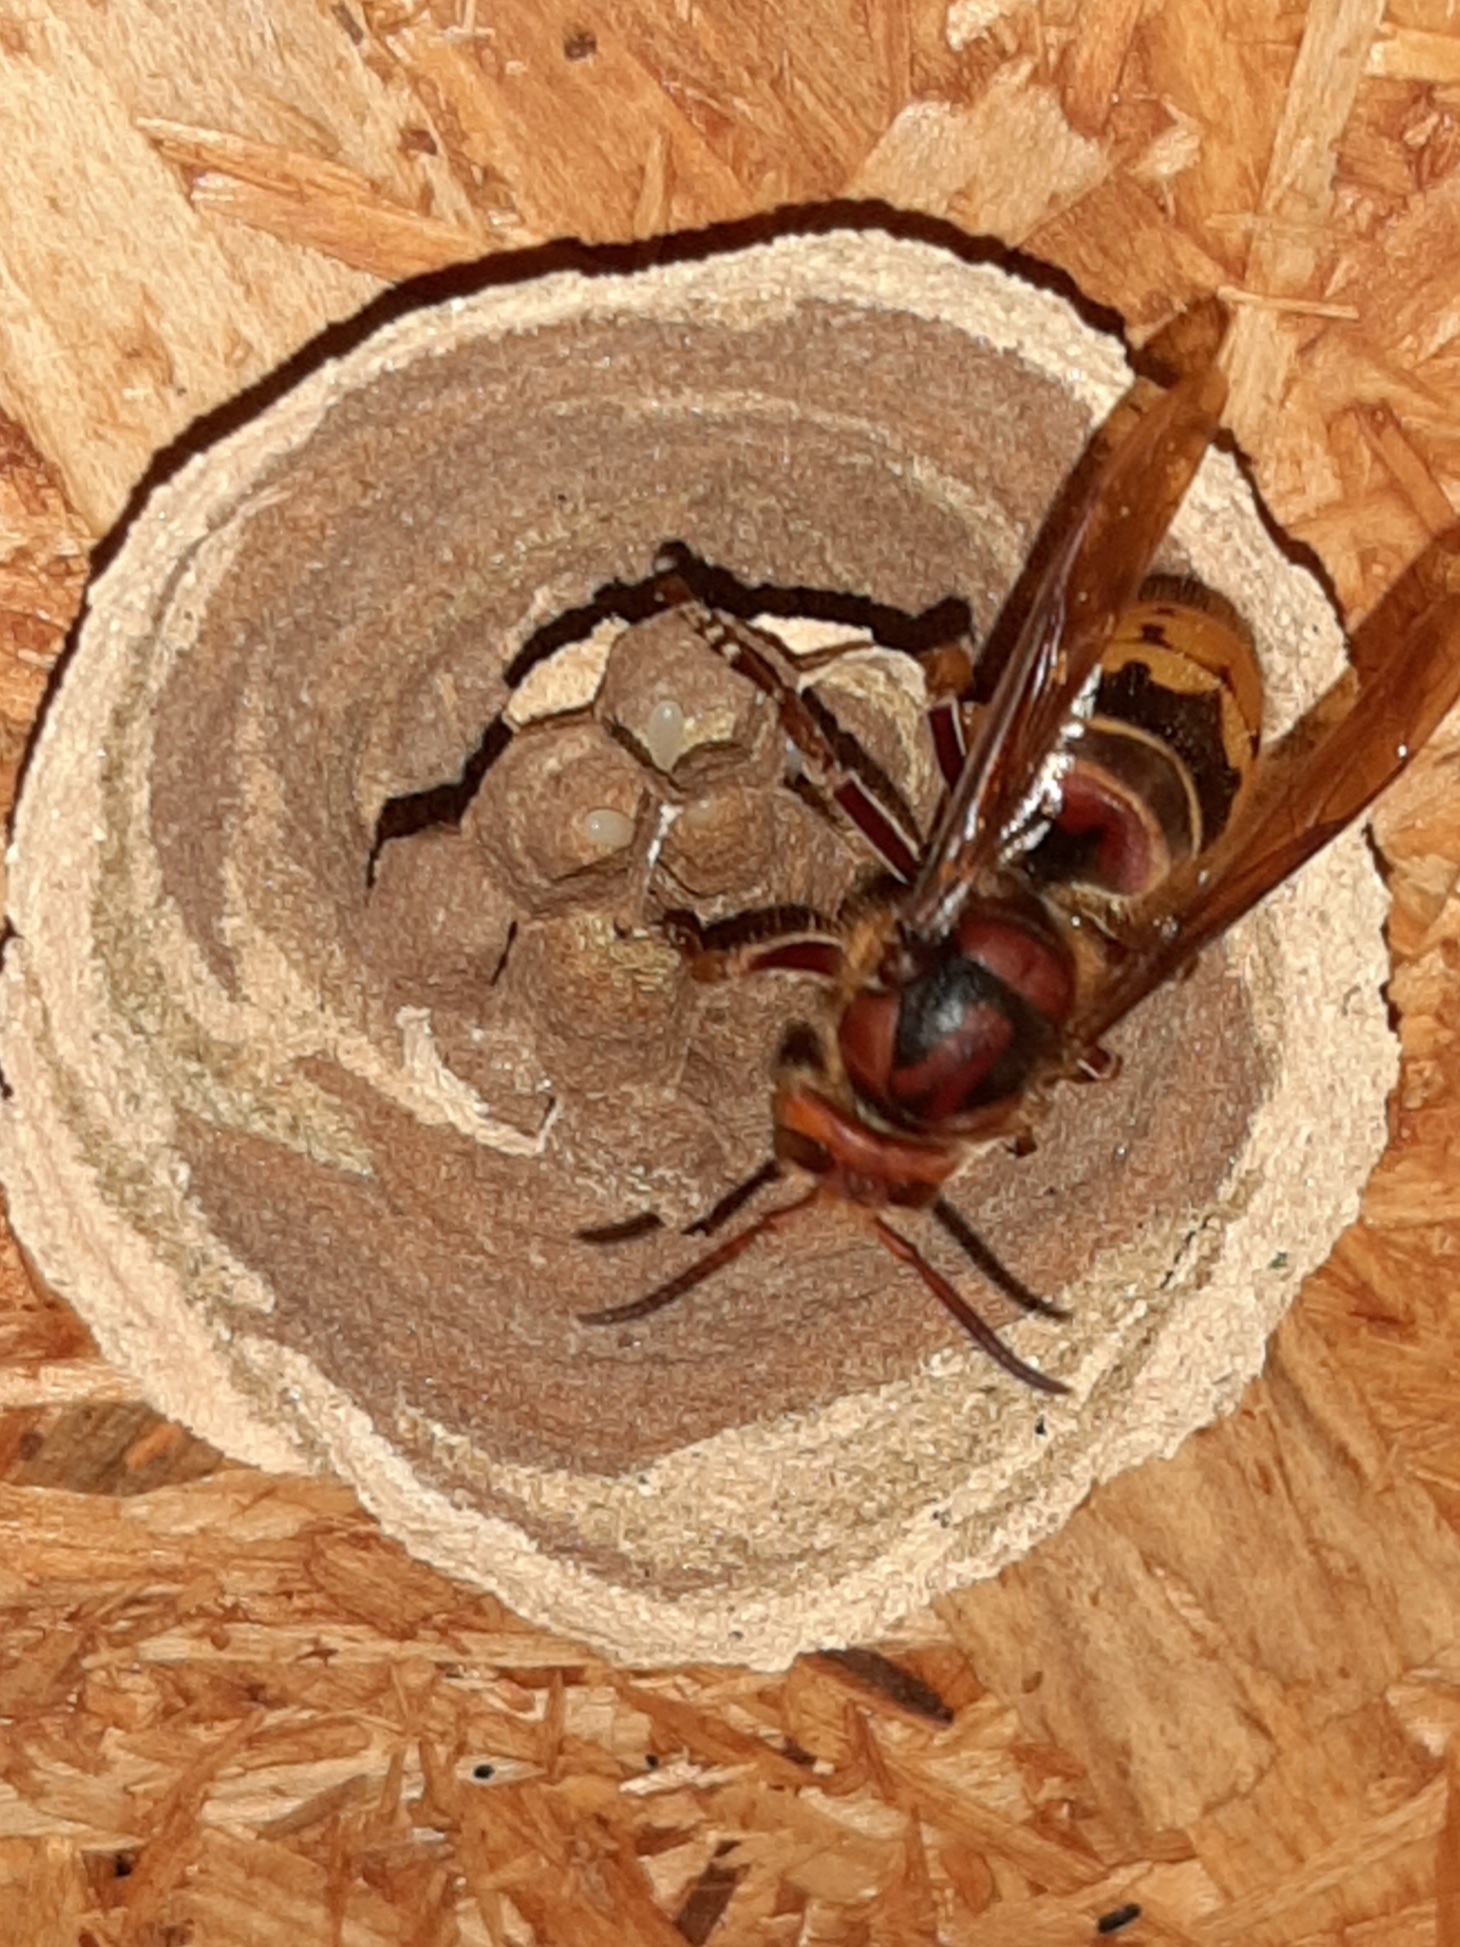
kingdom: Animalia
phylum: Arthropoda
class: Insecta
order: Hymenoptera
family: Vespidae
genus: Vespa
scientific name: Vespa crabro
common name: Hornet
